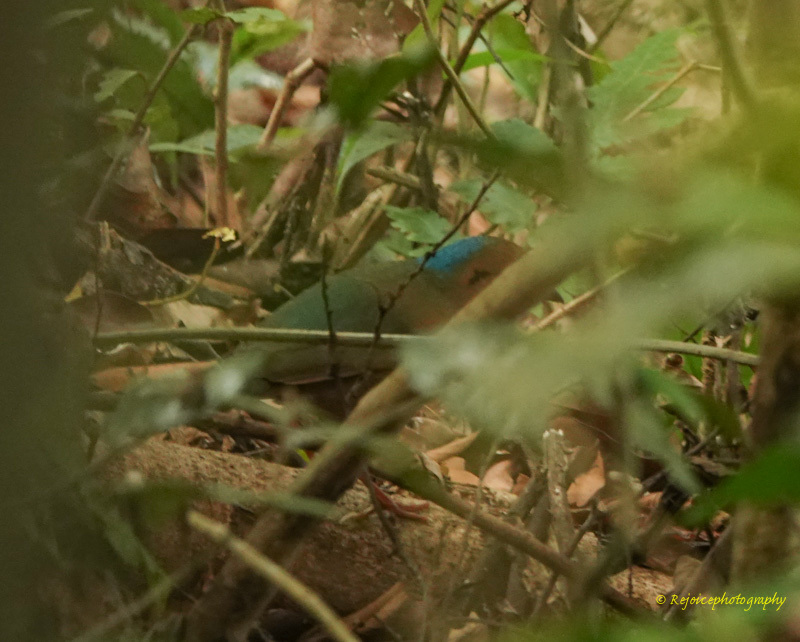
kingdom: Animalia
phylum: Chordata
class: Aves
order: Passeriformes
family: Pittidae
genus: Pitta
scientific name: Pitta nipalensis
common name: Blue-naped pitta
